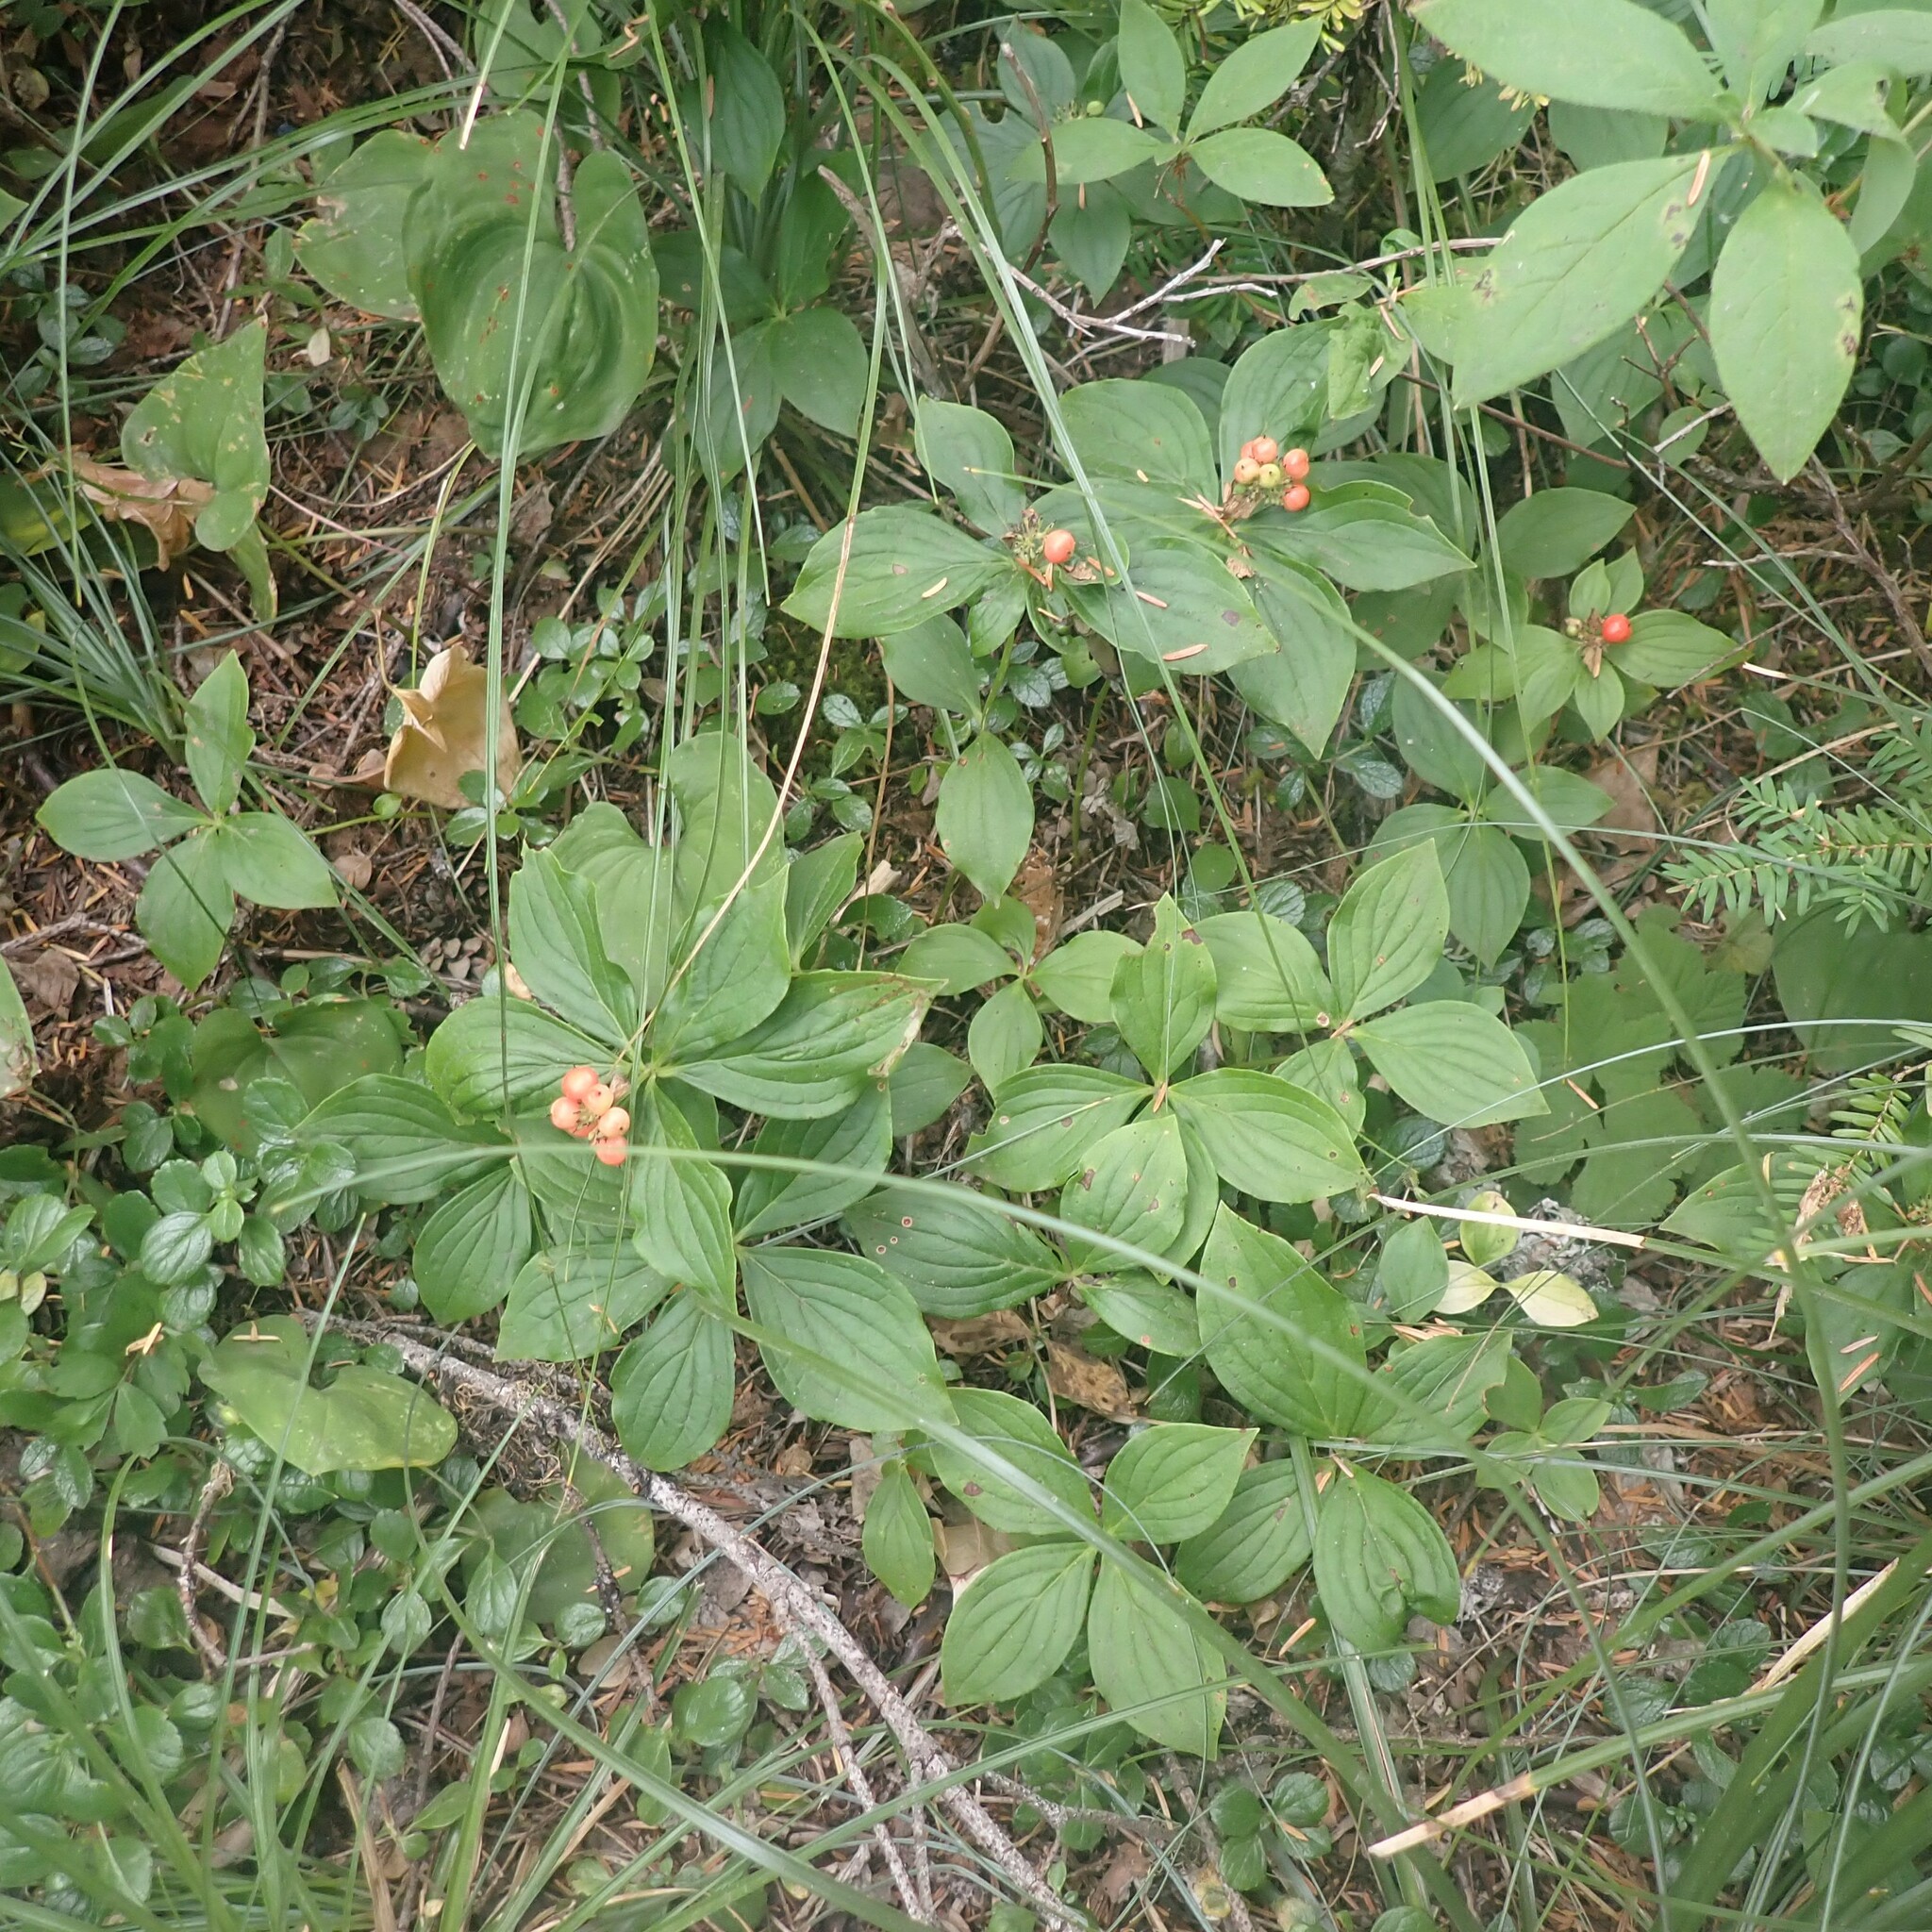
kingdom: Plantae
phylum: Tracheophyta
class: Magnoliopsida
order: Cornales
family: Cornaceae
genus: Cornus
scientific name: Cornus unalaschkensis
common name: Alaska bunchberry
